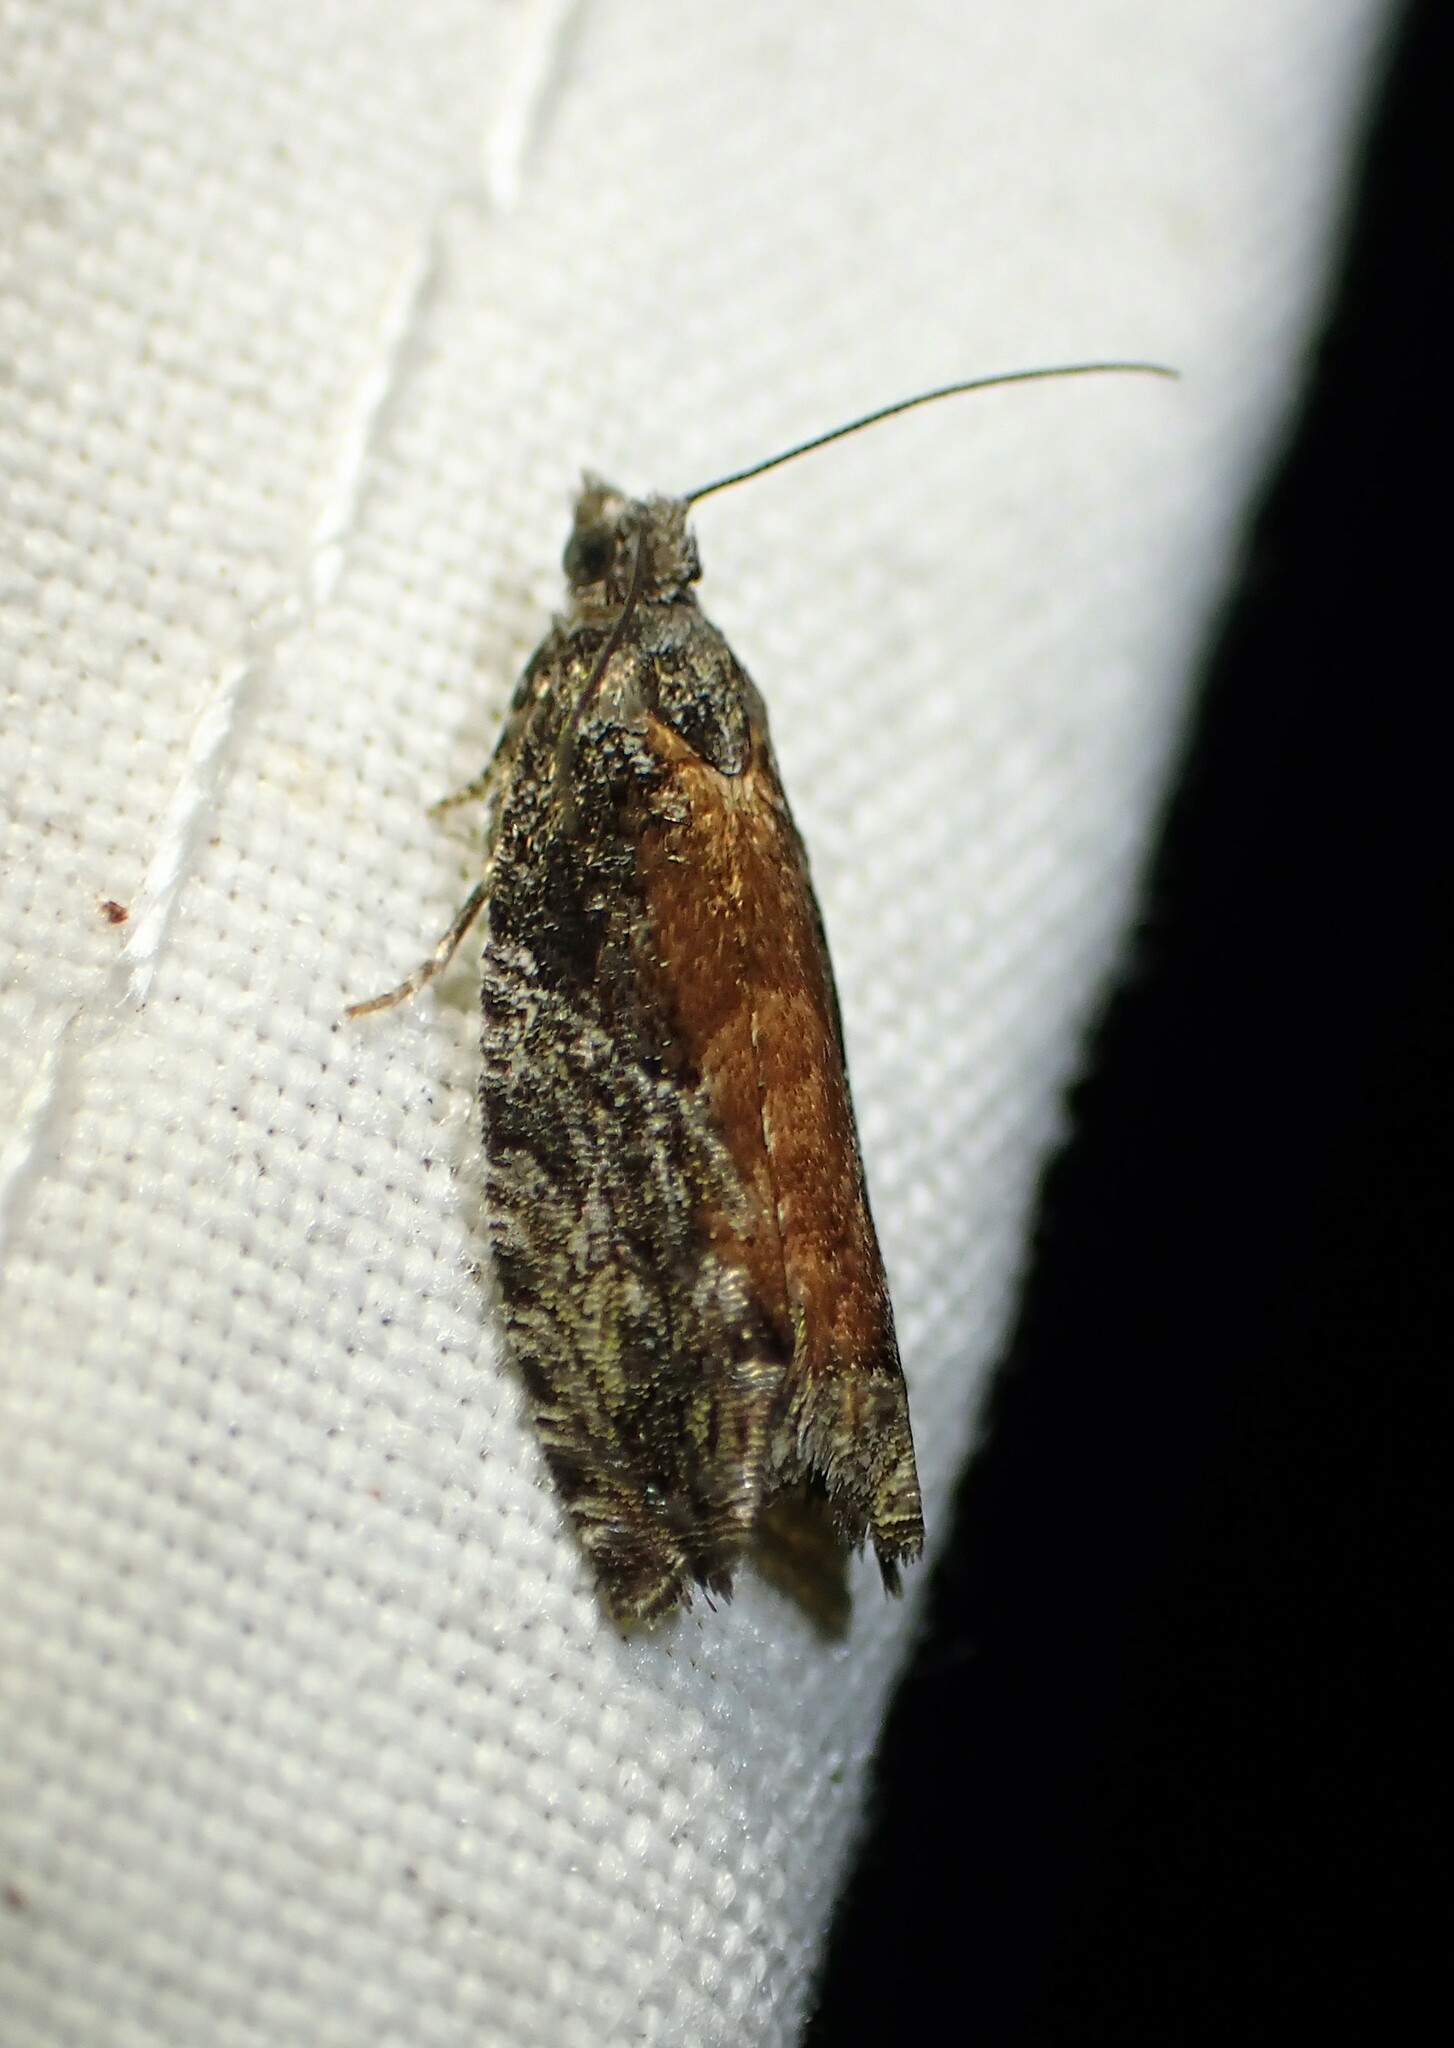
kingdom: Animalia
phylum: Arthropoda
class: Insecta
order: Lepidoptera
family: Tortricidae
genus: Epinotia
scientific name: Epinotia nisella
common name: Grey poplar bell
